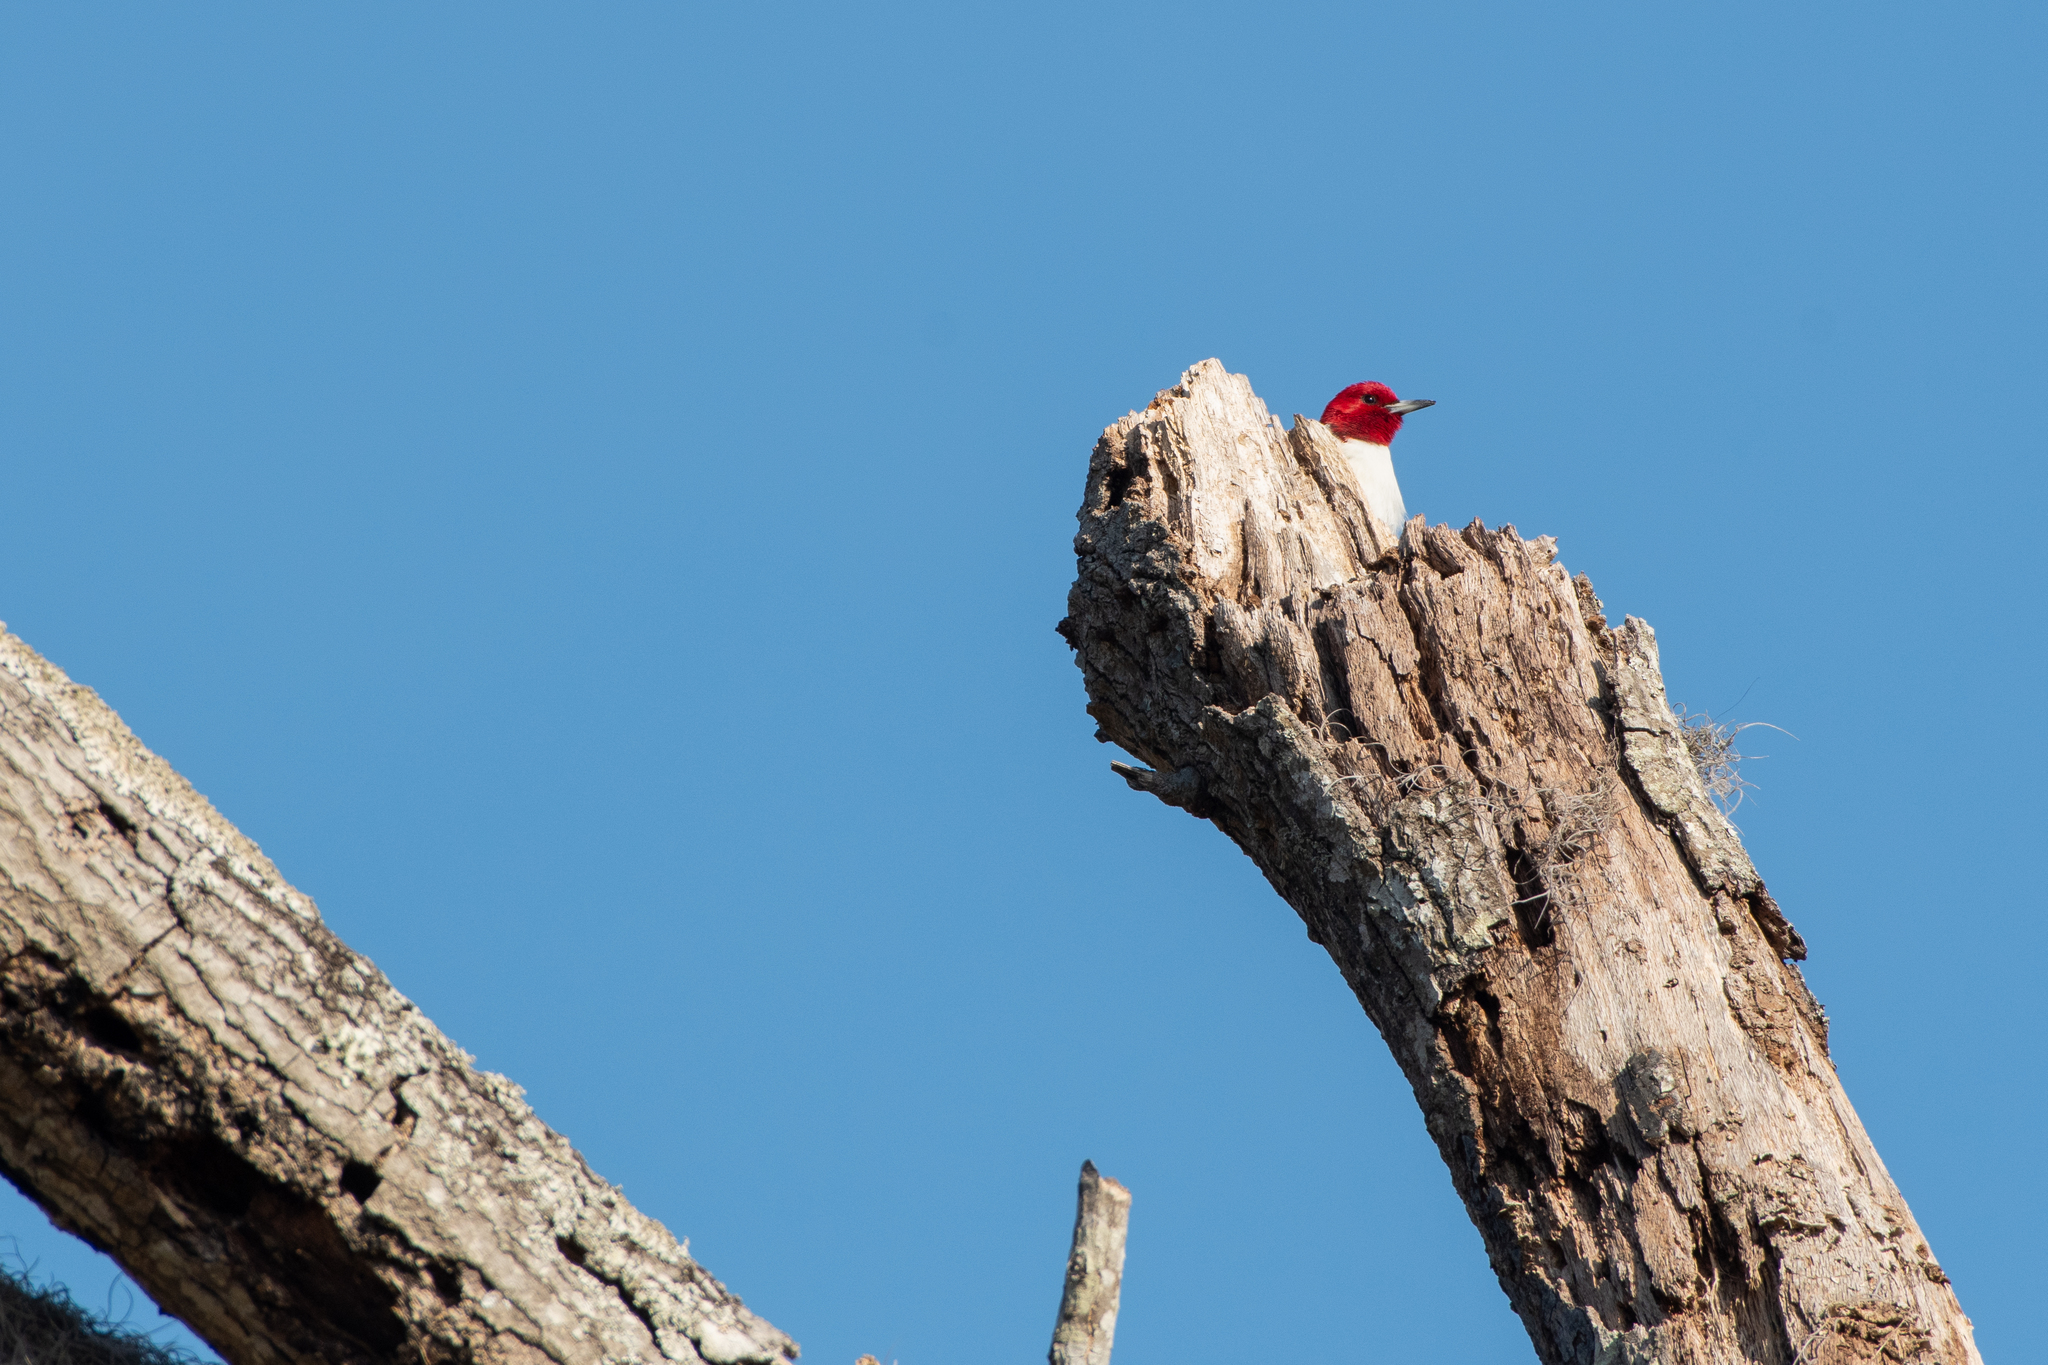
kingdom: Animalia
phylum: Chordata
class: Aves
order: Piciformes
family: Picidae
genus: Melanerpes
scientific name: Melanerpes erythrocephalus
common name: Red-headed woodpecker
